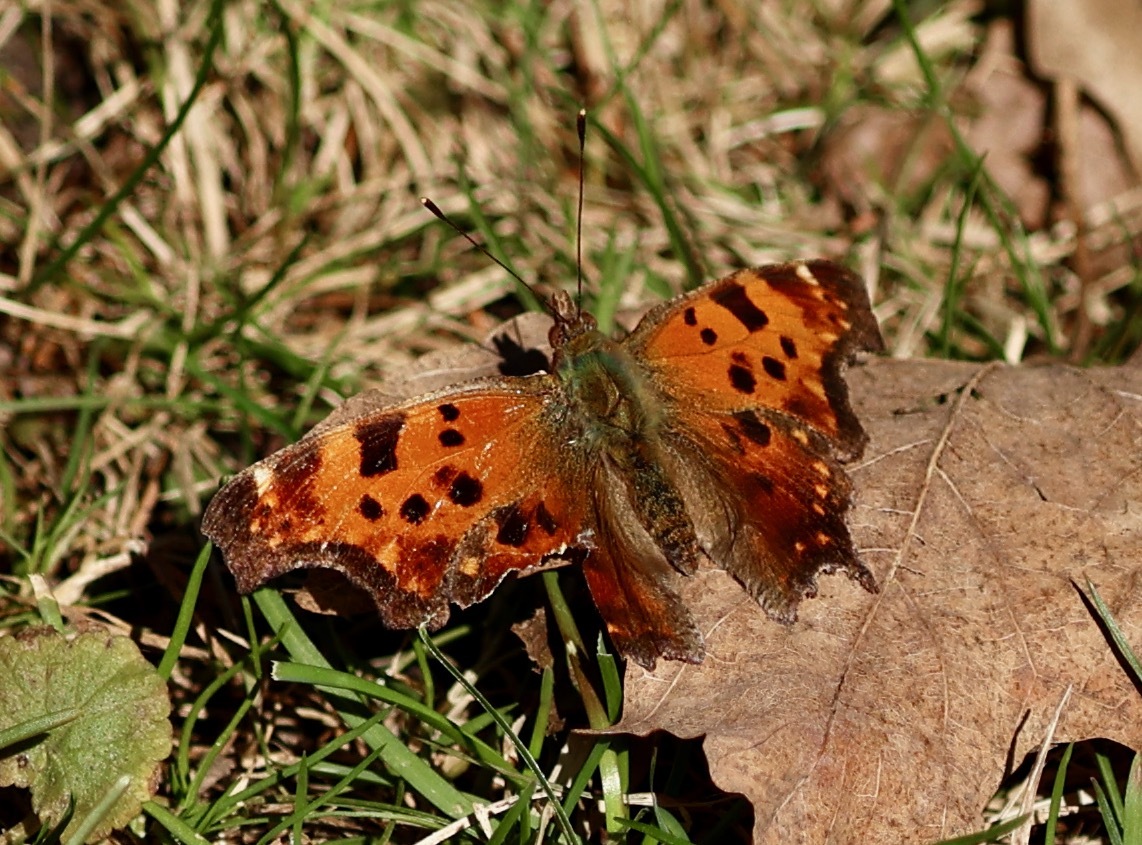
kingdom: Animalia
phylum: Arthropoda
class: Insecta
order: Lepidoptera
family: Nymphalidae
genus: Polygonia
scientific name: Polygonia comma
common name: Eastern comma
